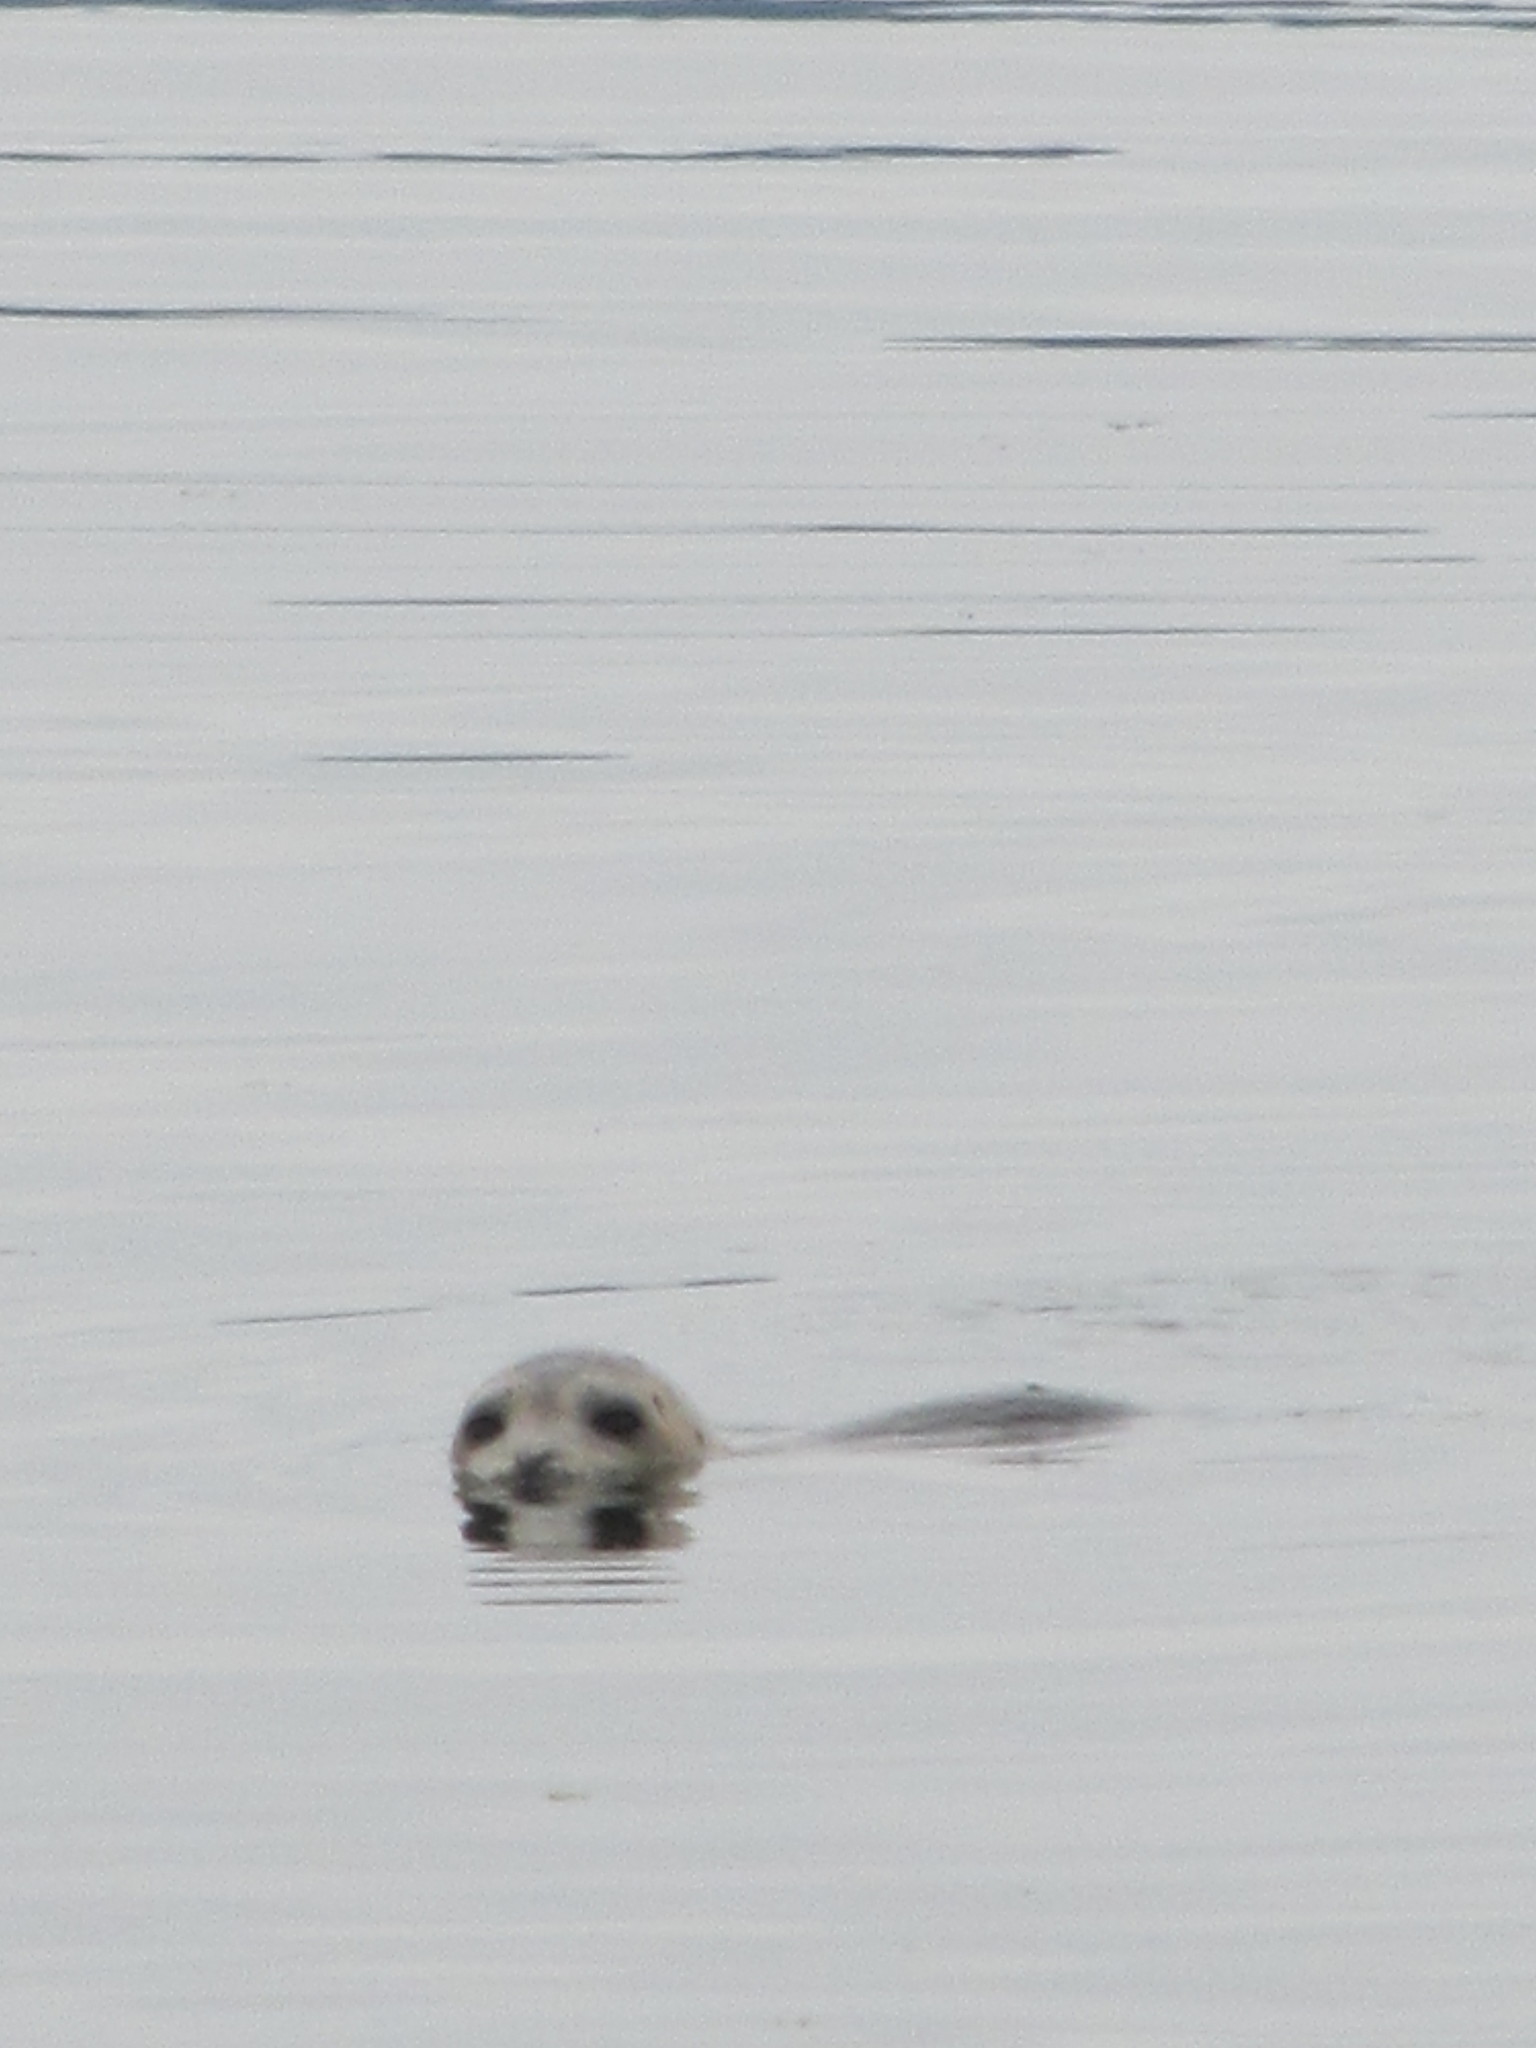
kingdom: Animalia
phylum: Chordata
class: Mammalia
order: Carnivora
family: Phocidae
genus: Phoca
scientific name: Phoca vitulina
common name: Harbor seal
